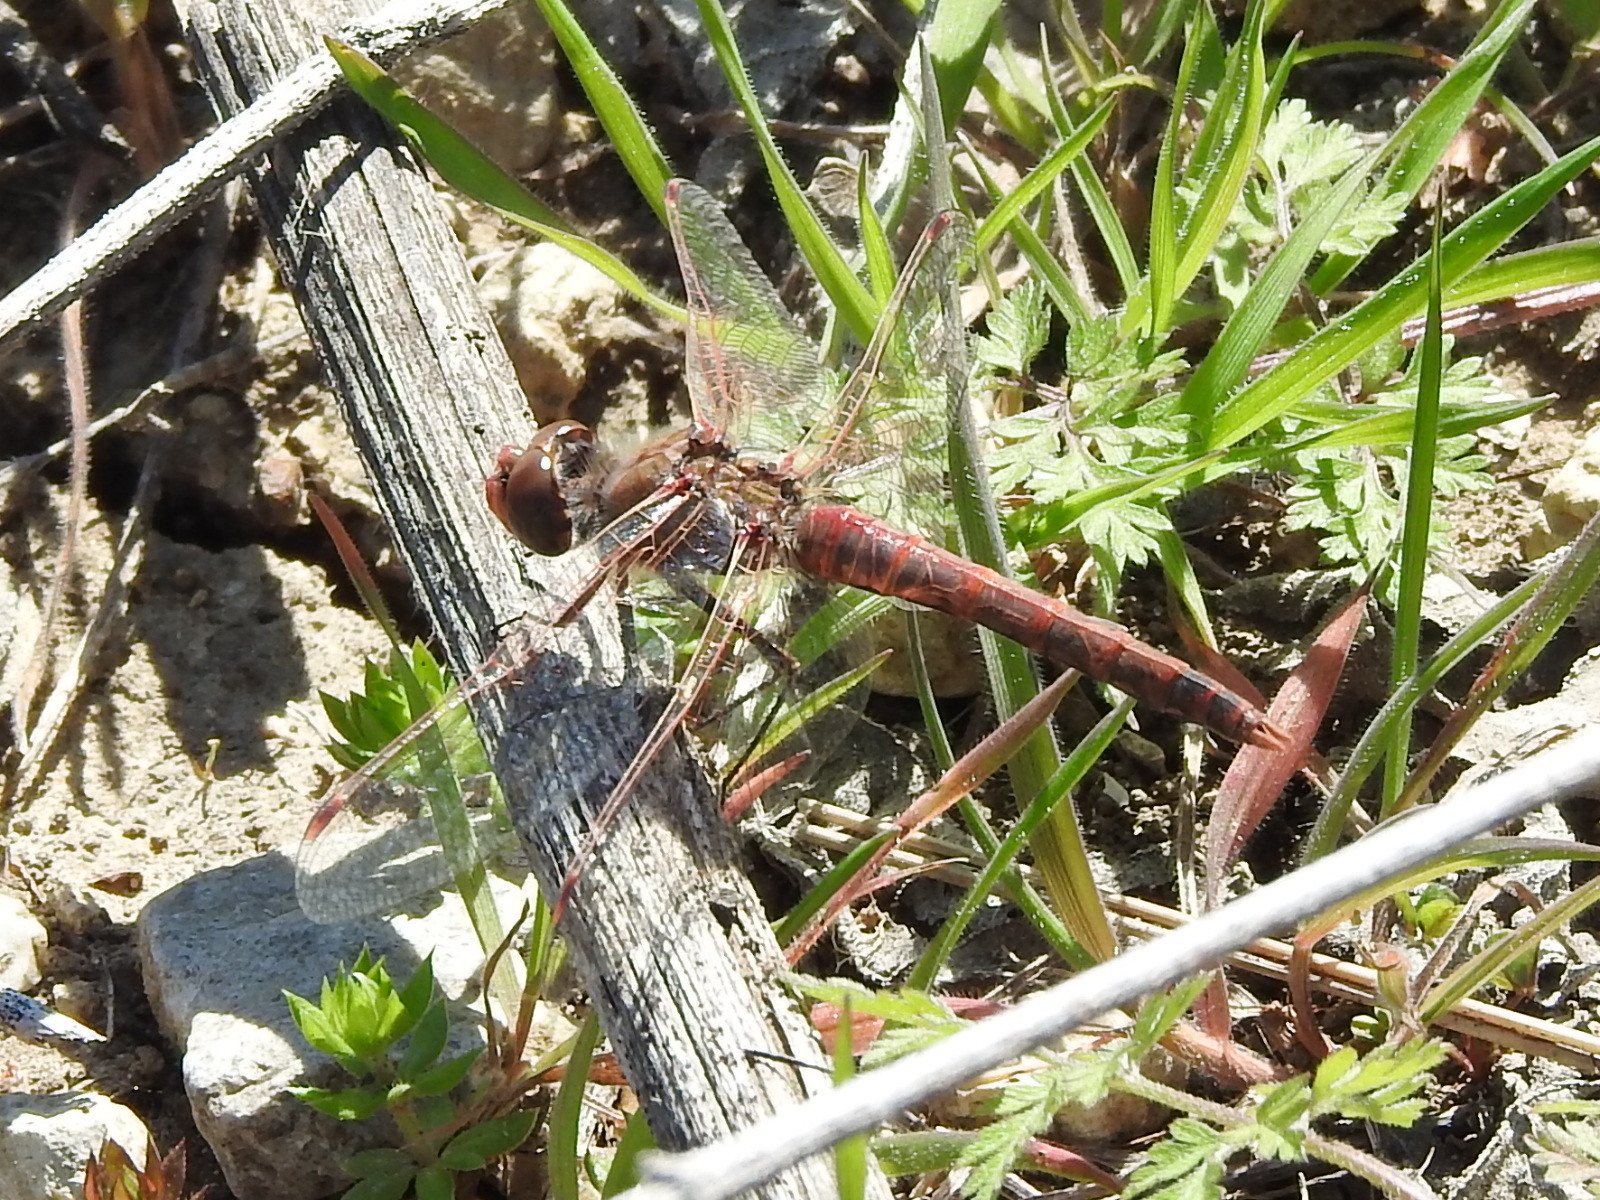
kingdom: Animalia
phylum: Arthropoda
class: Insecta
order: Odonata
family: Libellulidae
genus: Sympetrum
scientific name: Sympetrum corruptum
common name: Variegated meadowhawk
